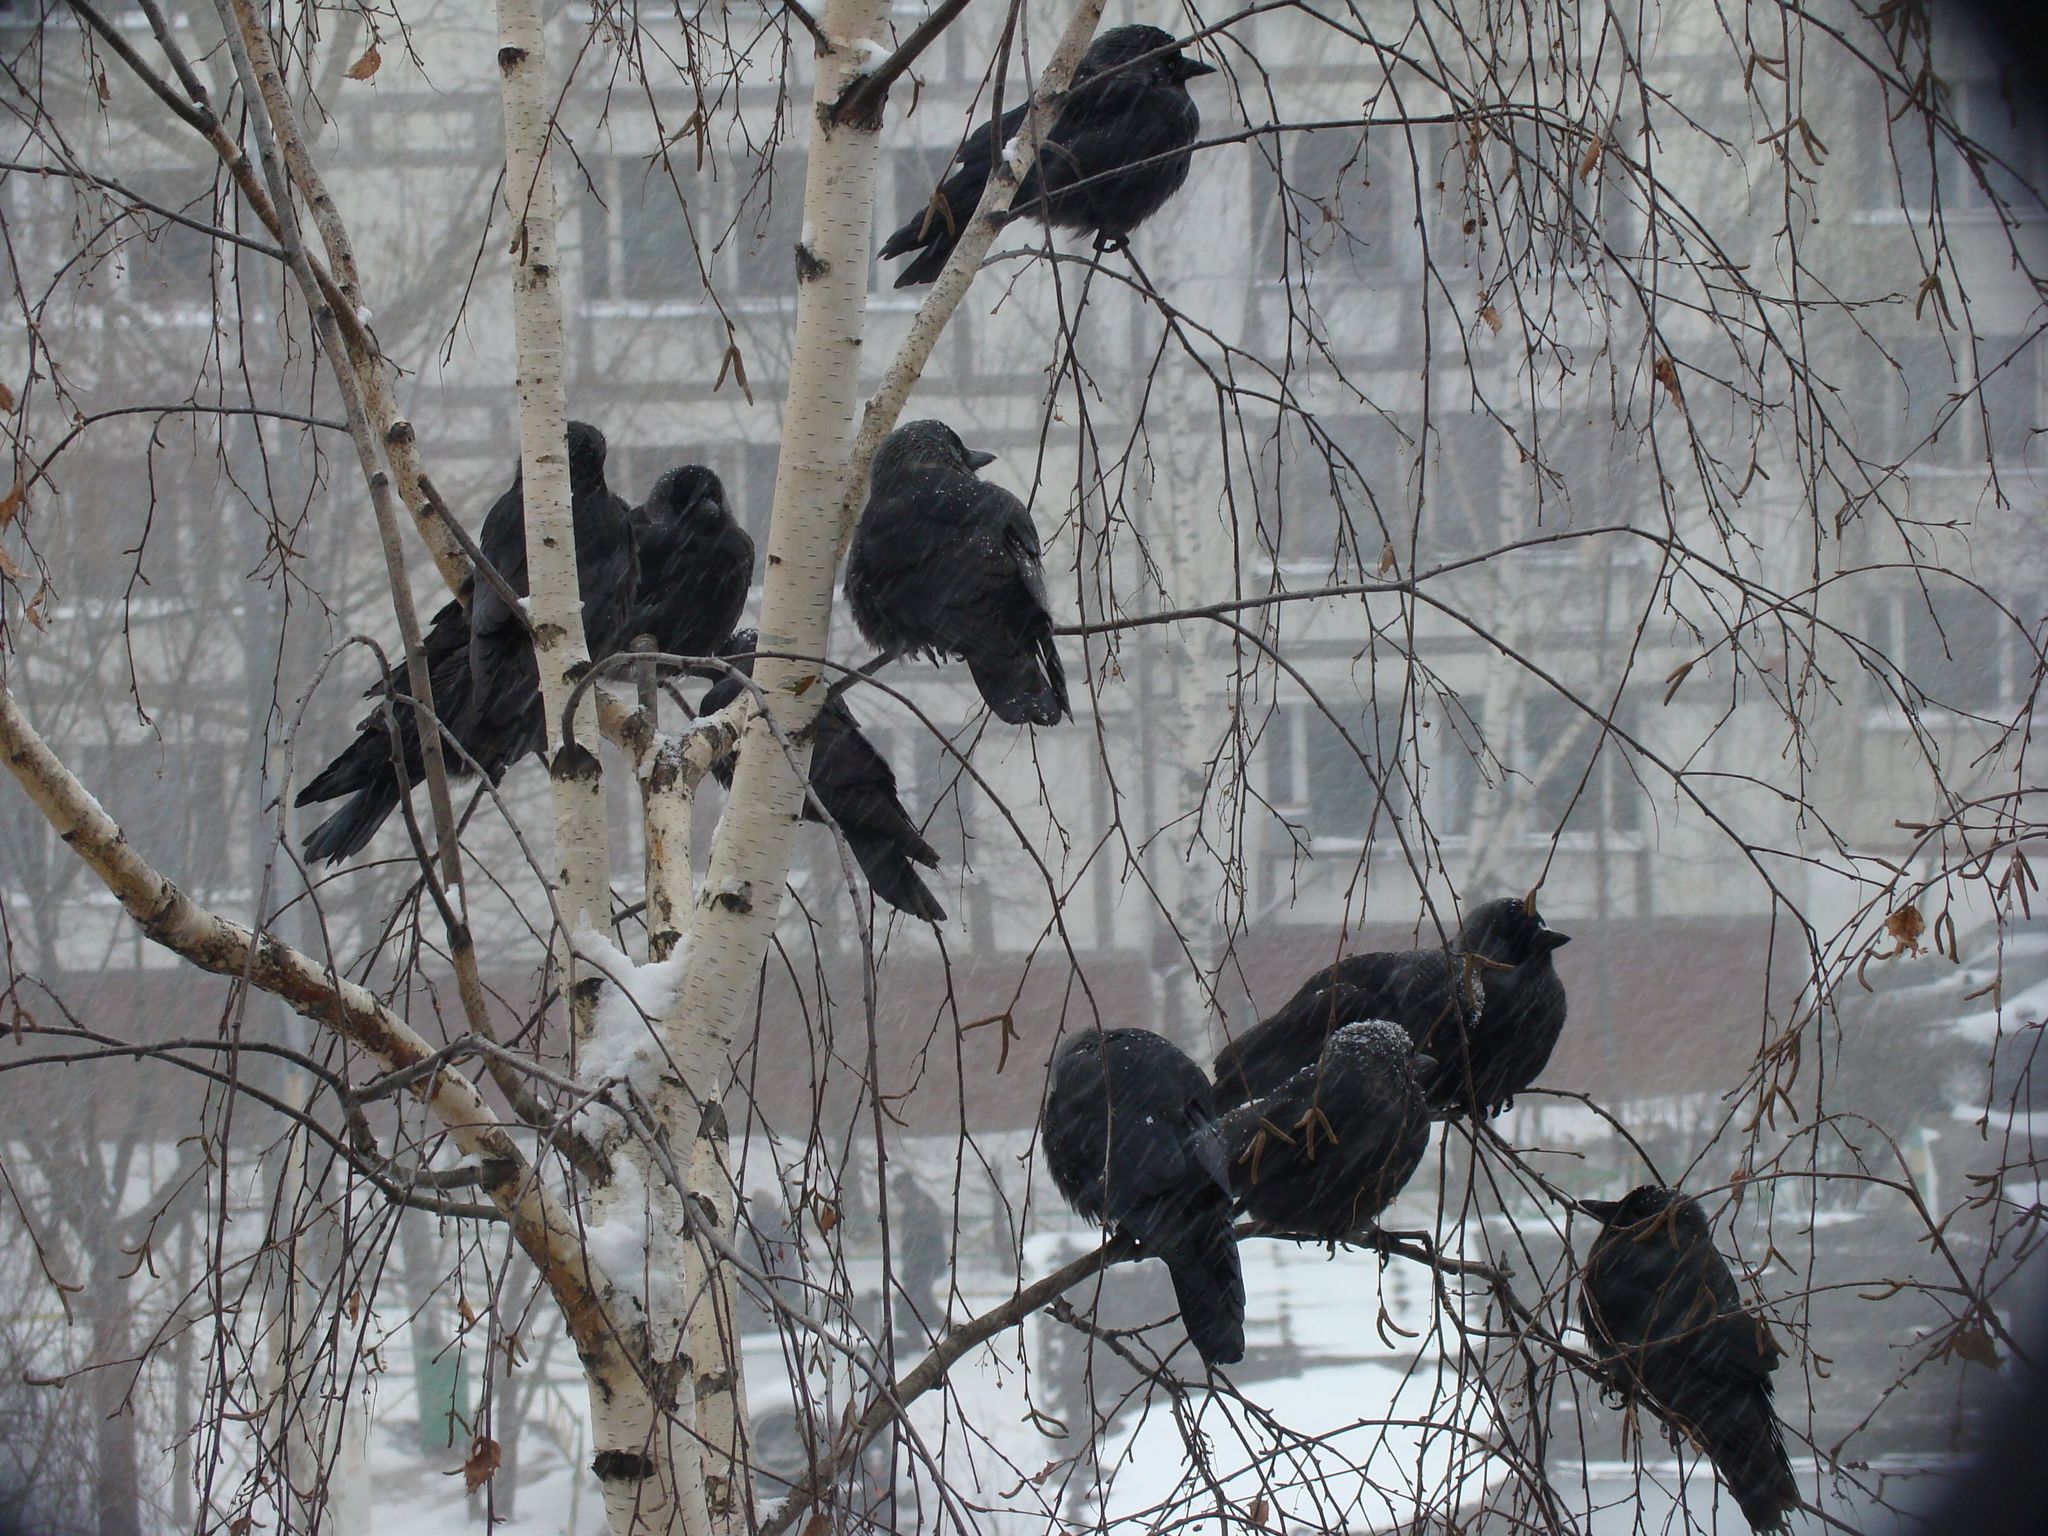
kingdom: Animalia
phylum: Chordata
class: Aves
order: Passeriformes
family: Corvidae
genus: Coloeus
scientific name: Coloeus monedula
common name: Western jackdaw
